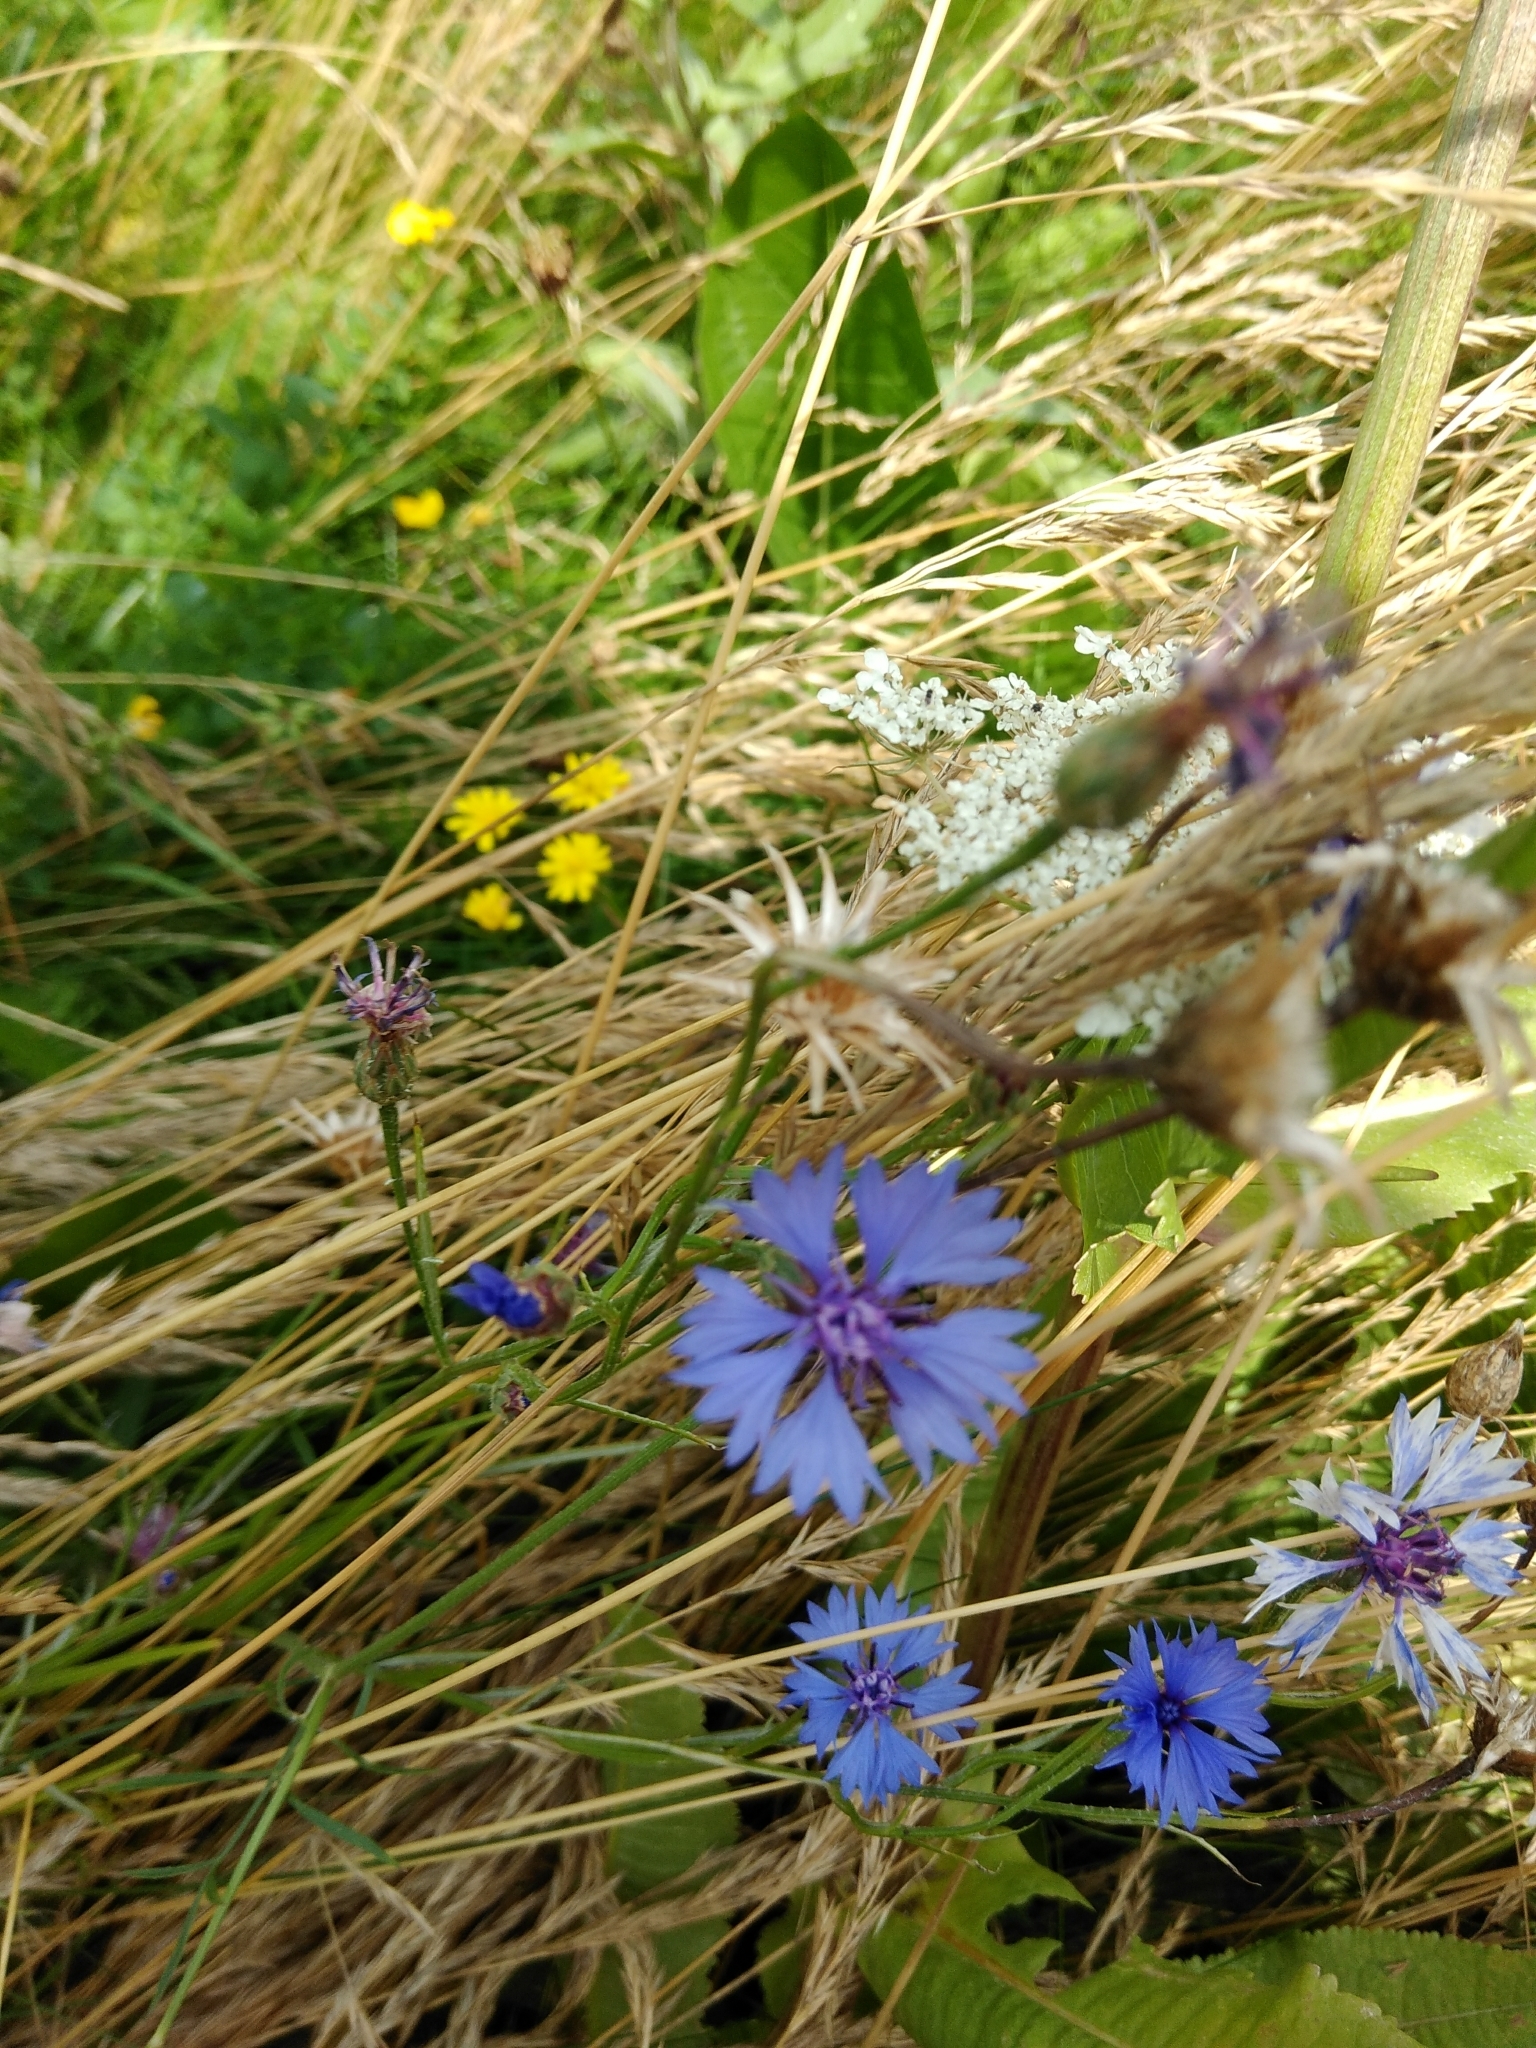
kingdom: Plantae
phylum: Tracheophyta
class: Magnoliopsida
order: Asterales
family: Asteraceae
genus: Centaurea
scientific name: Centaurea cyanus
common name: Cornflower
